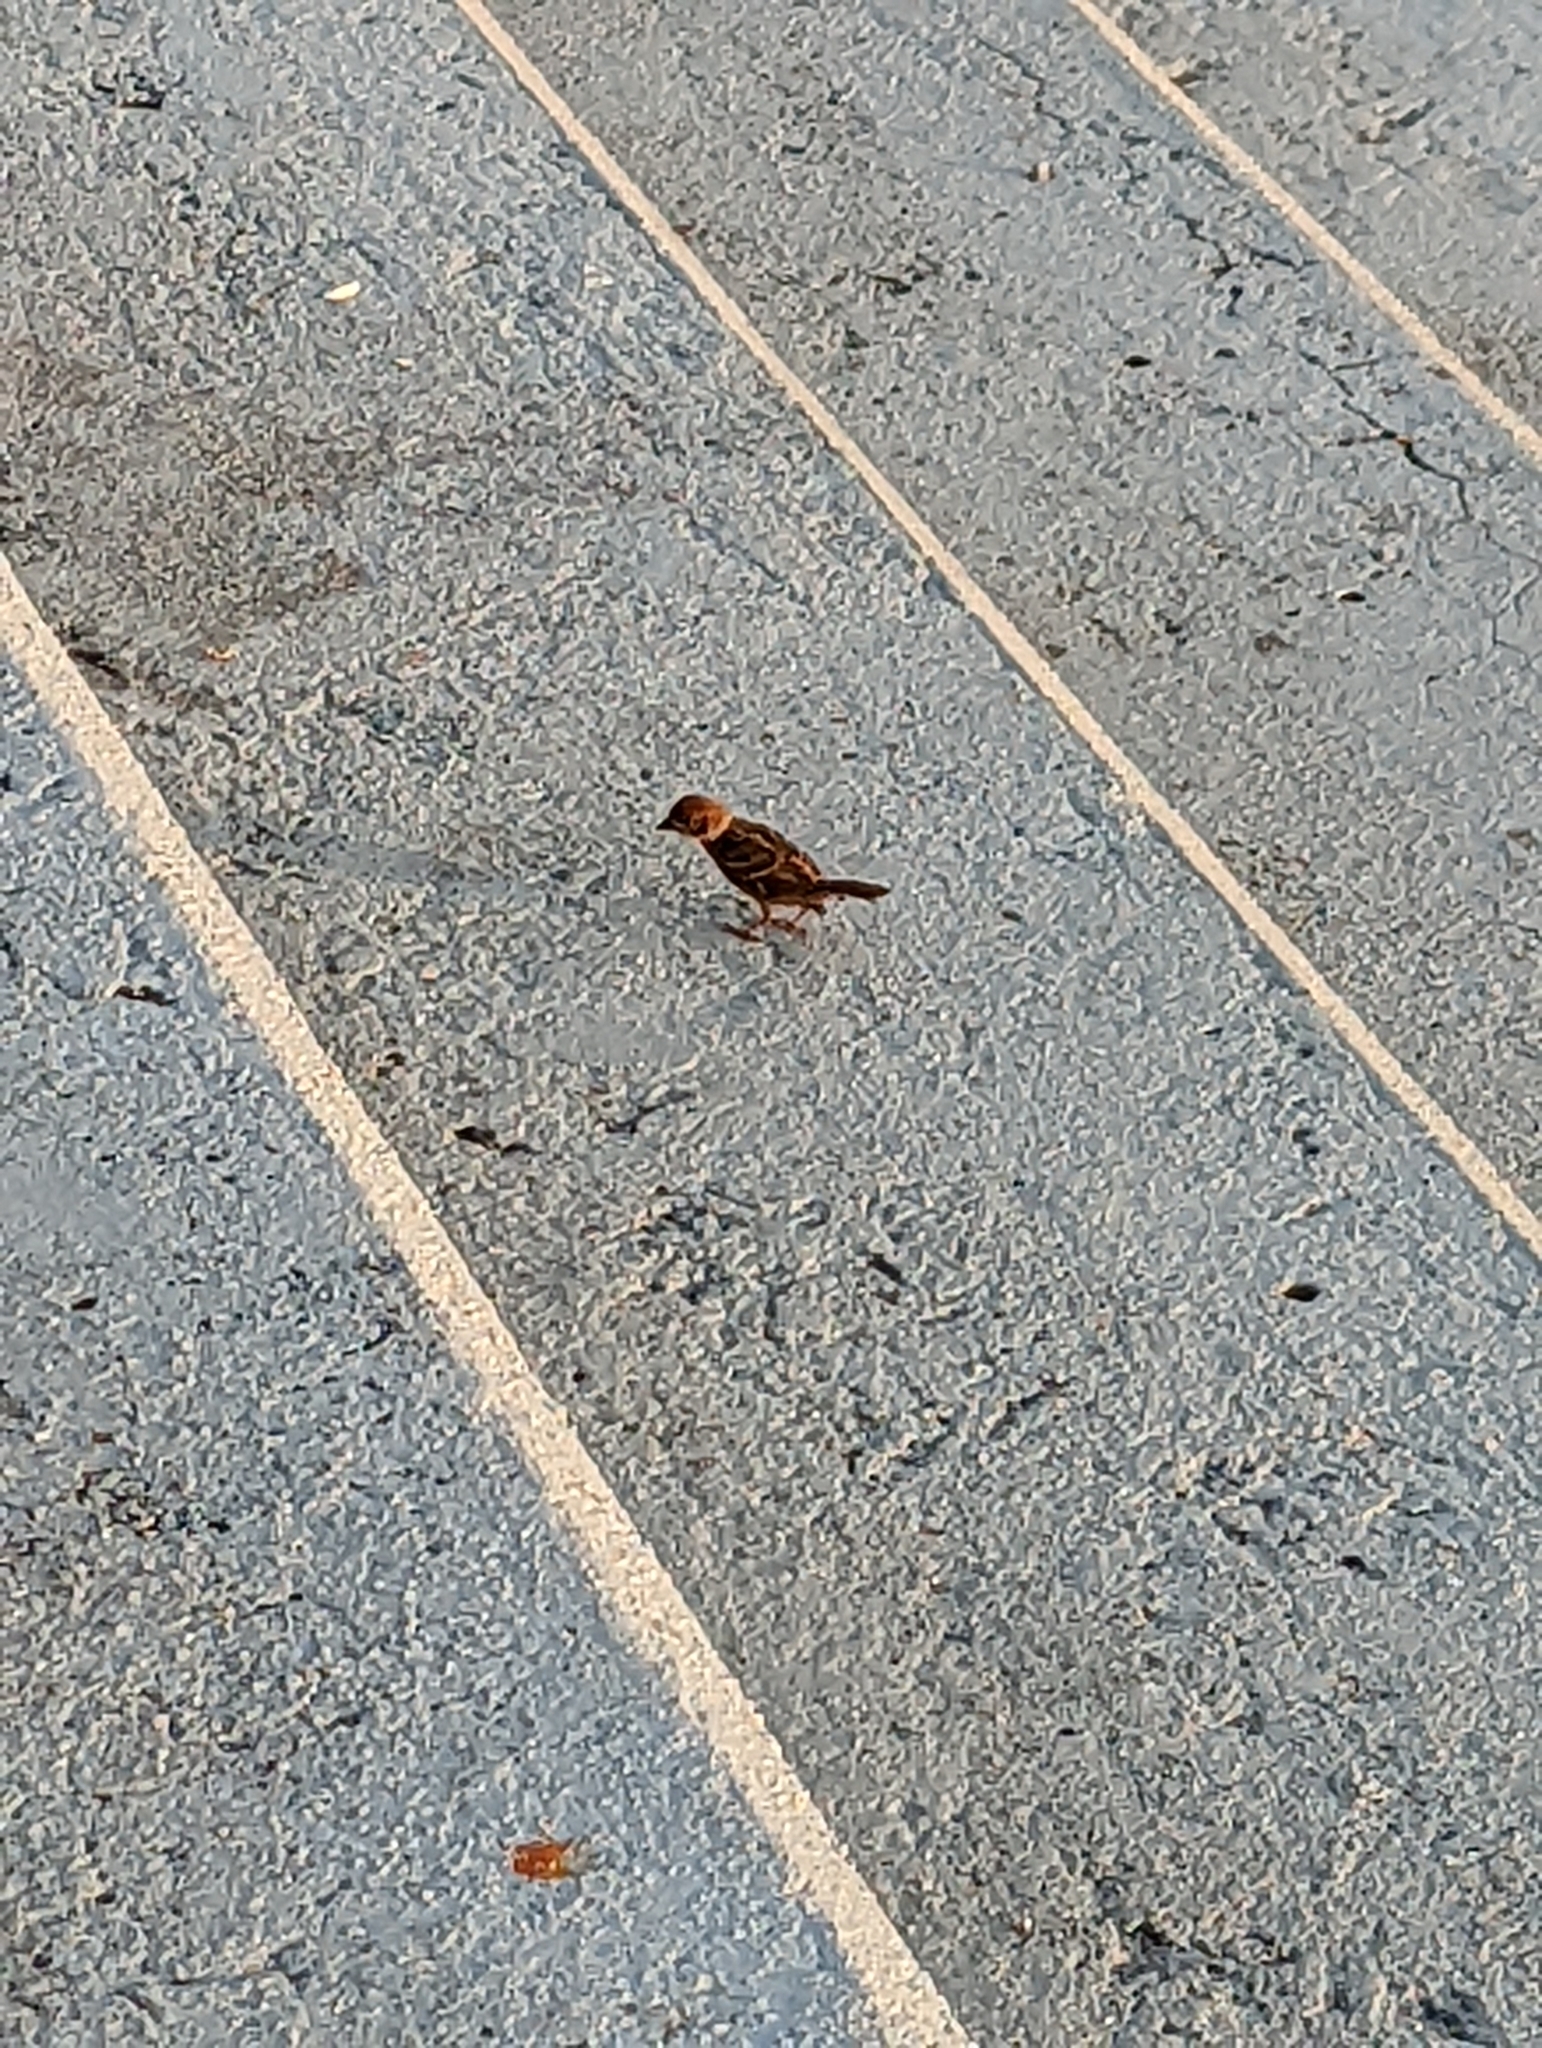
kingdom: Animalia
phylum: Chordata
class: Aves
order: Passeriformes
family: Passeridae
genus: Passer
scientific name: Passer montanus
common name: Eurasian tree sparrow
